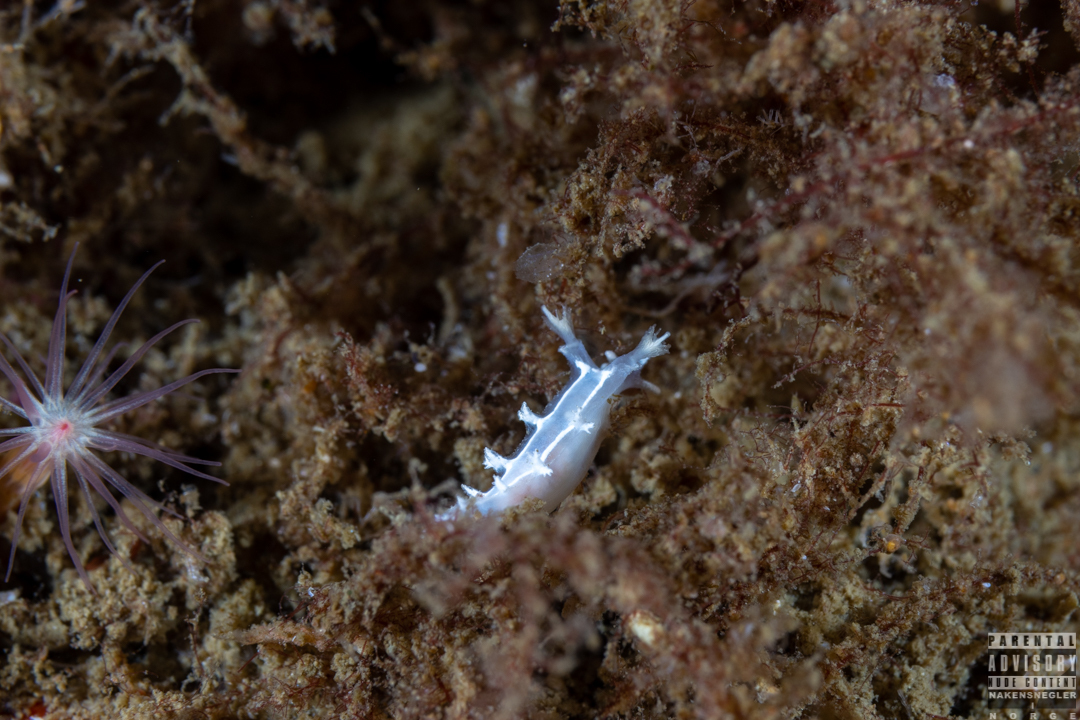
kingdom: Animalia
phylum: Mollusca
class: Gastropoda
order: Nudibranchia
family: Tritoniidae
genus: Duvaucelia
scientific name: Duvaucelia lineata
